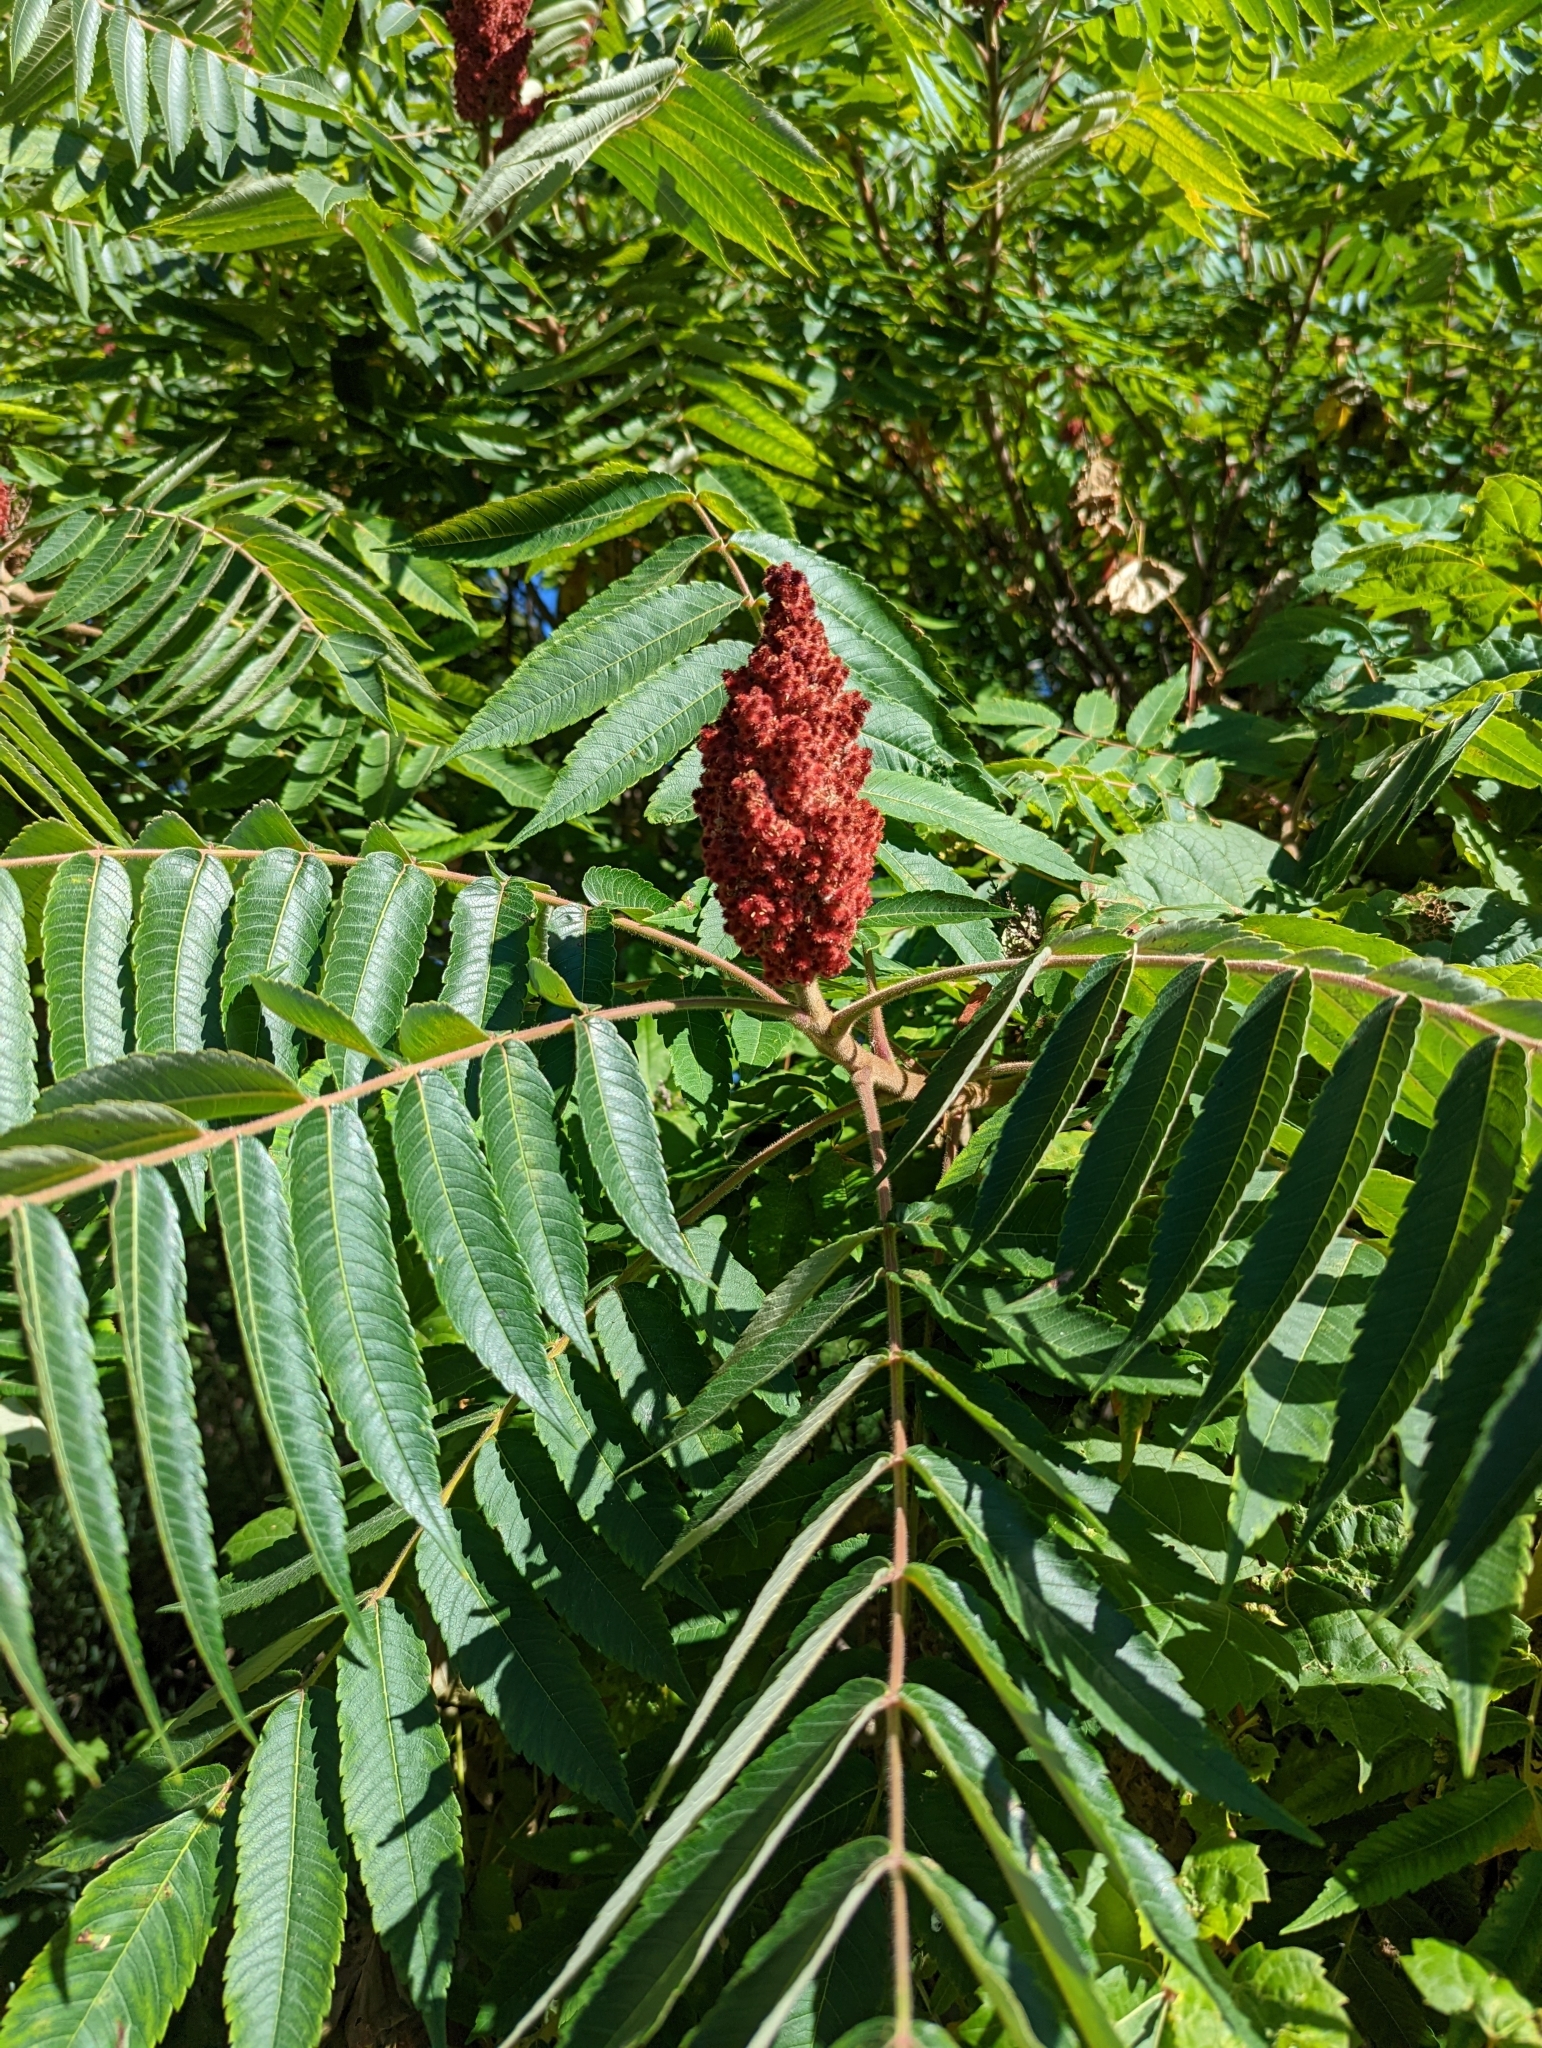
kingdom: Plantae
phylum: Tracheophyta
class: Magnoliopsida
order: Sapindales
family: Anacardiaceae
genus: Rhus
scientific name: Rhus typhina
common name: Staghorn sumac
